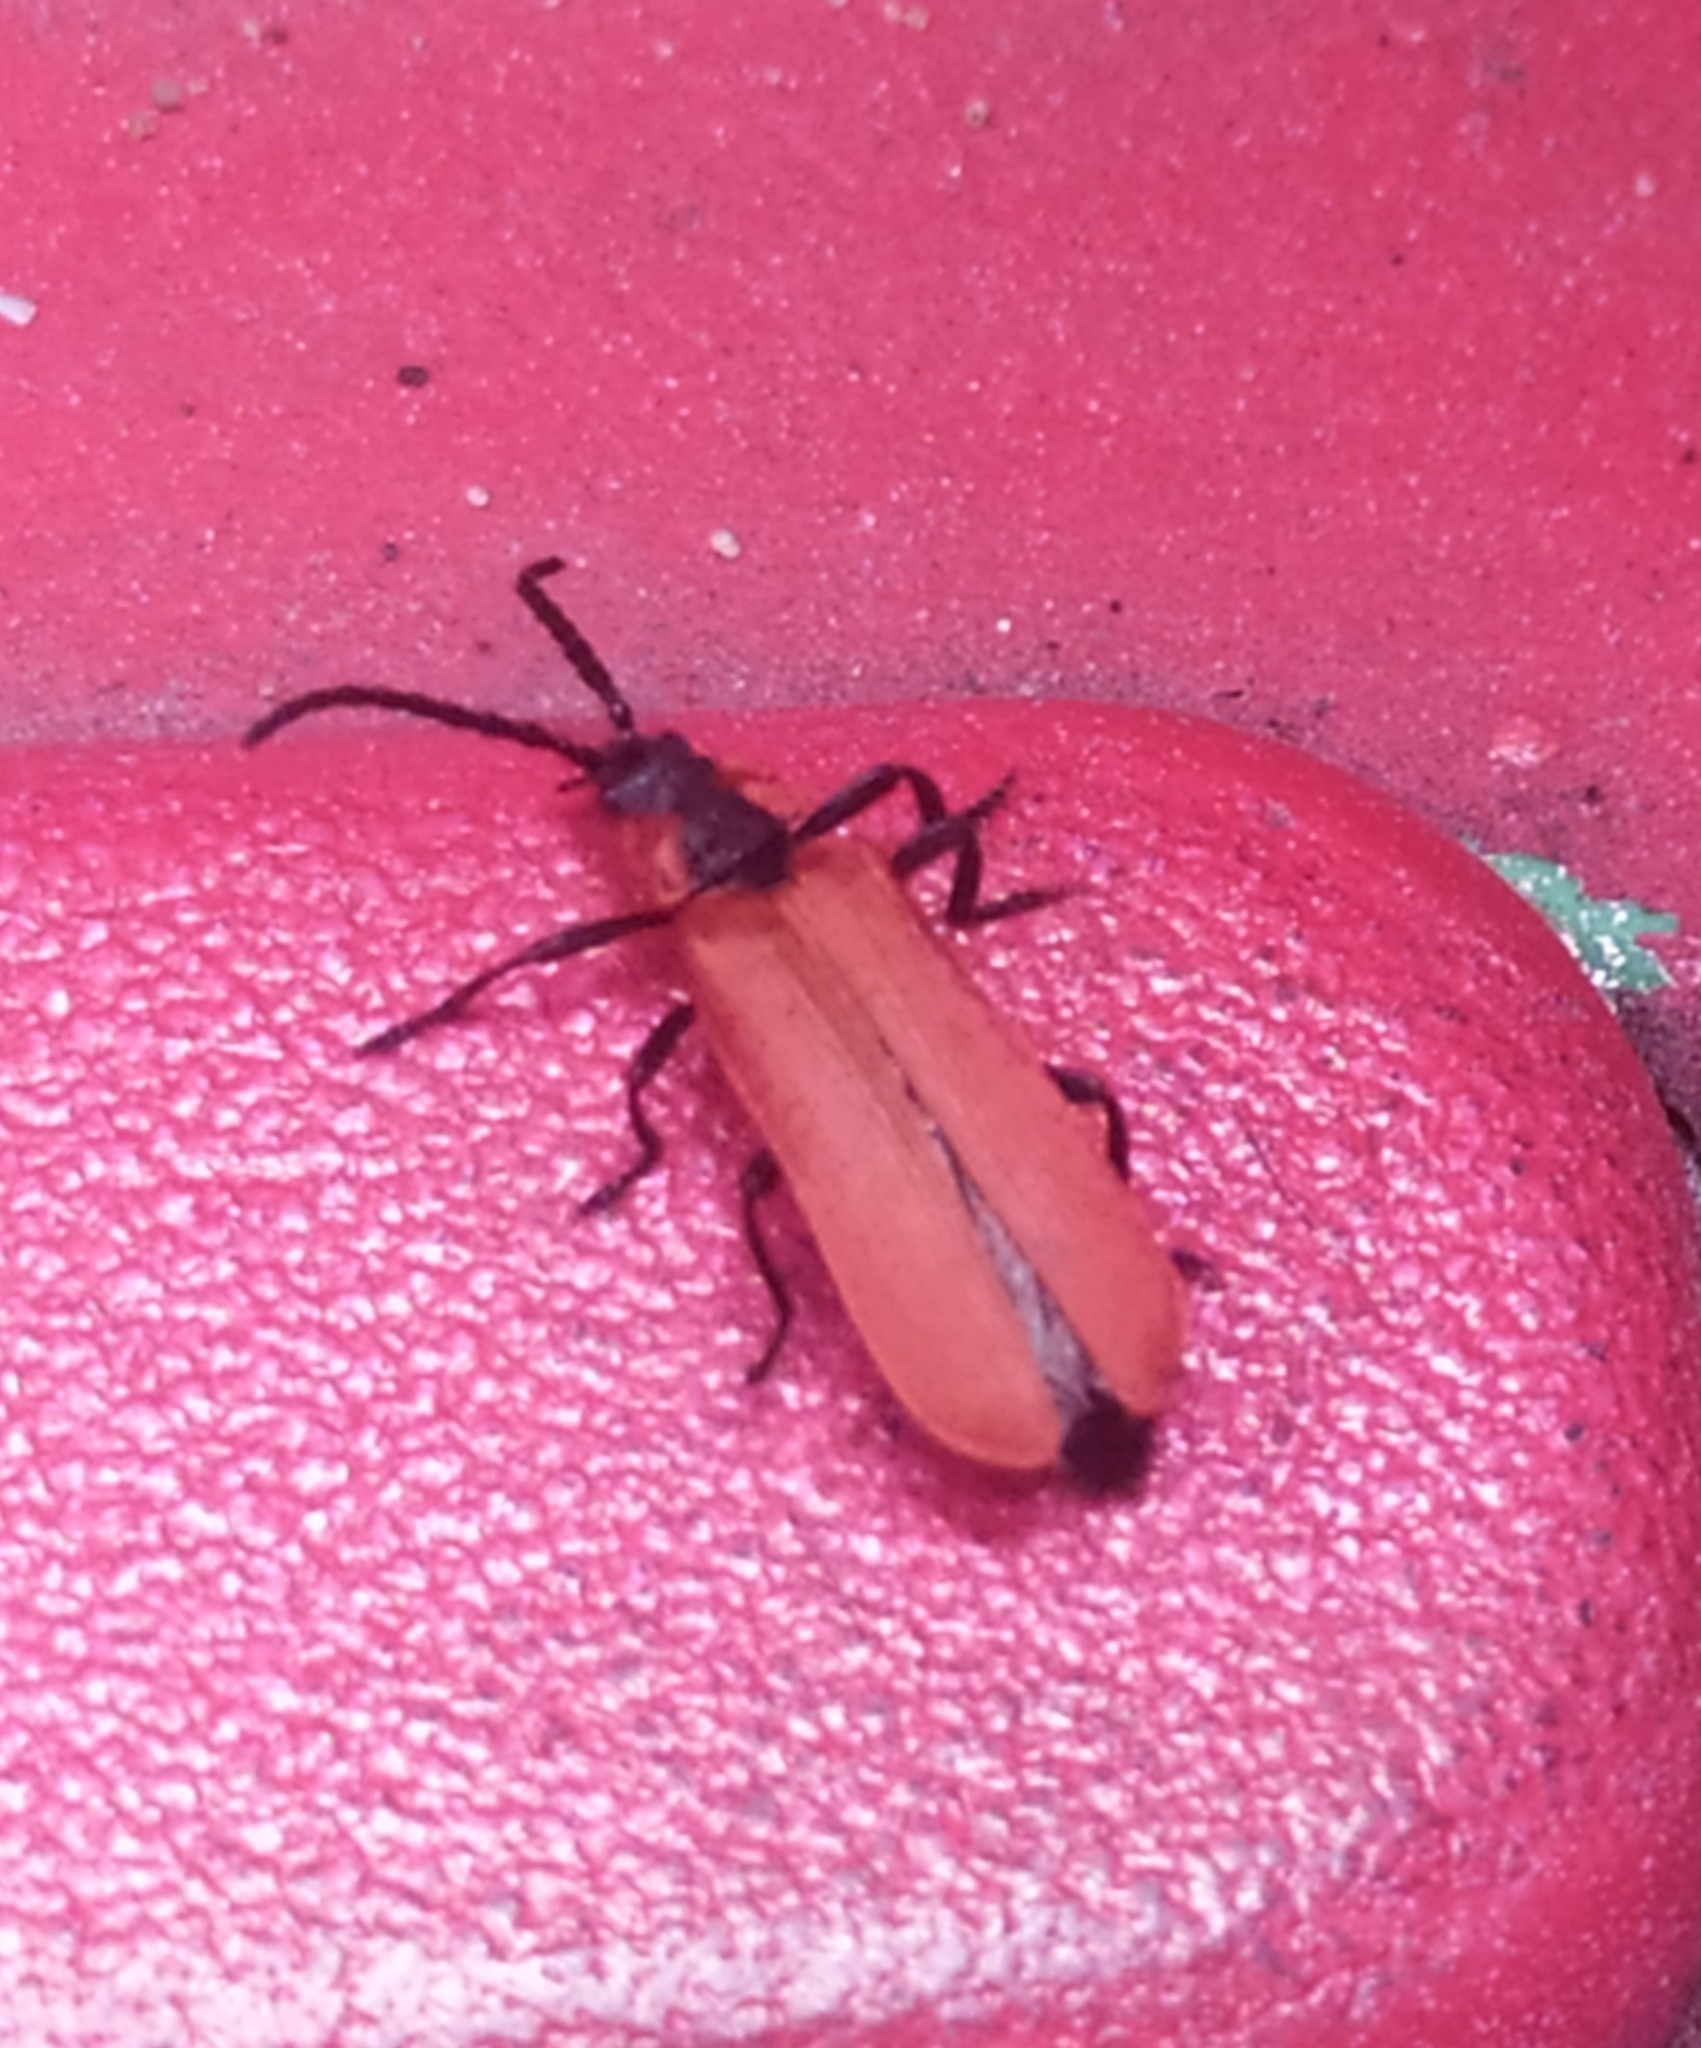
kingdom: Animalia
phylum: Arthropoda
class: Insecta
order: Coleoptera
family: Lycidae
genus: Lygistopterus
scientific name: Lygistopterus sanguineus
